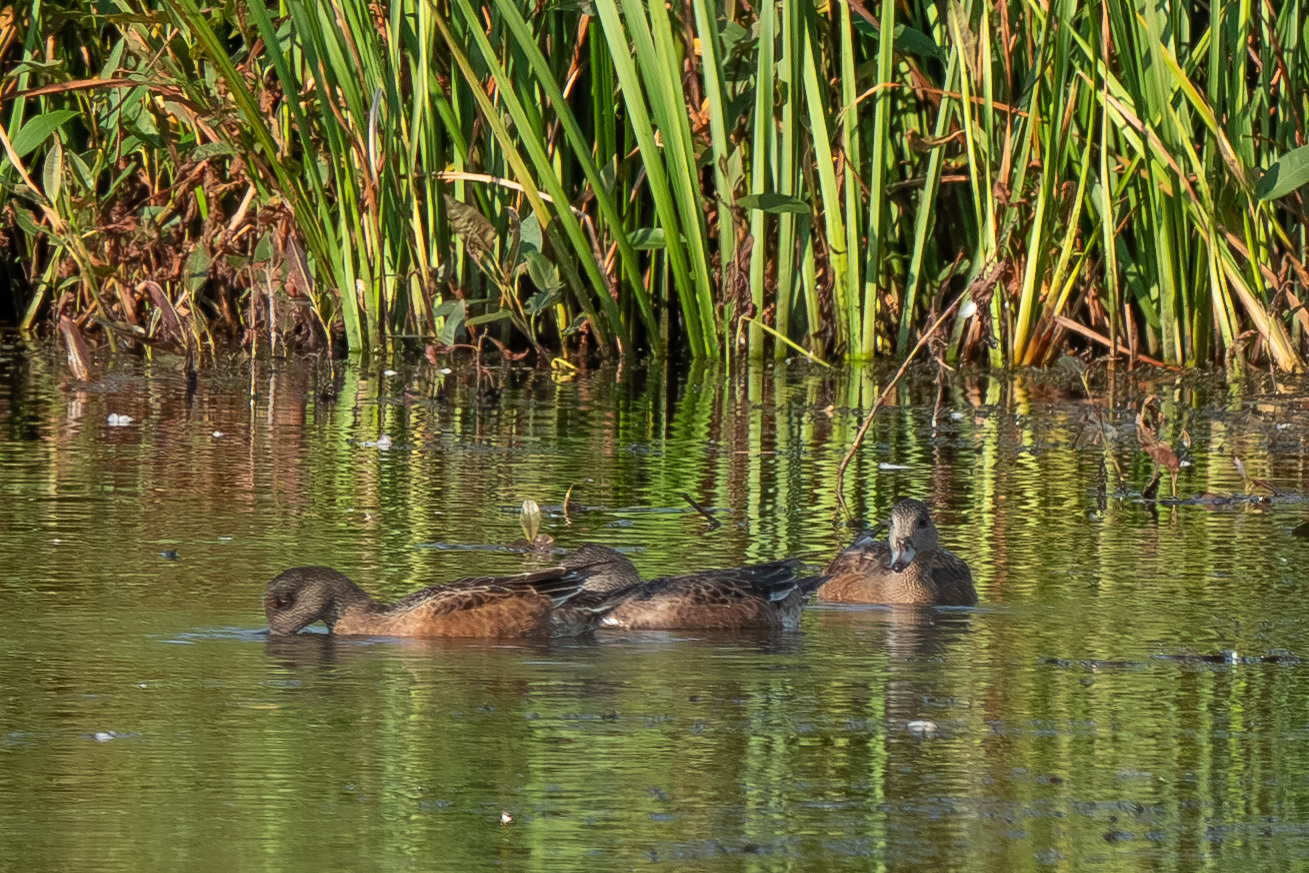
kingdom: Animalia
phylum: Chordata
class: Aves
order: Anseriformes
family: Anatidae
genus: Mareca
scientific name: Mareca americana
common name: American wigeon
